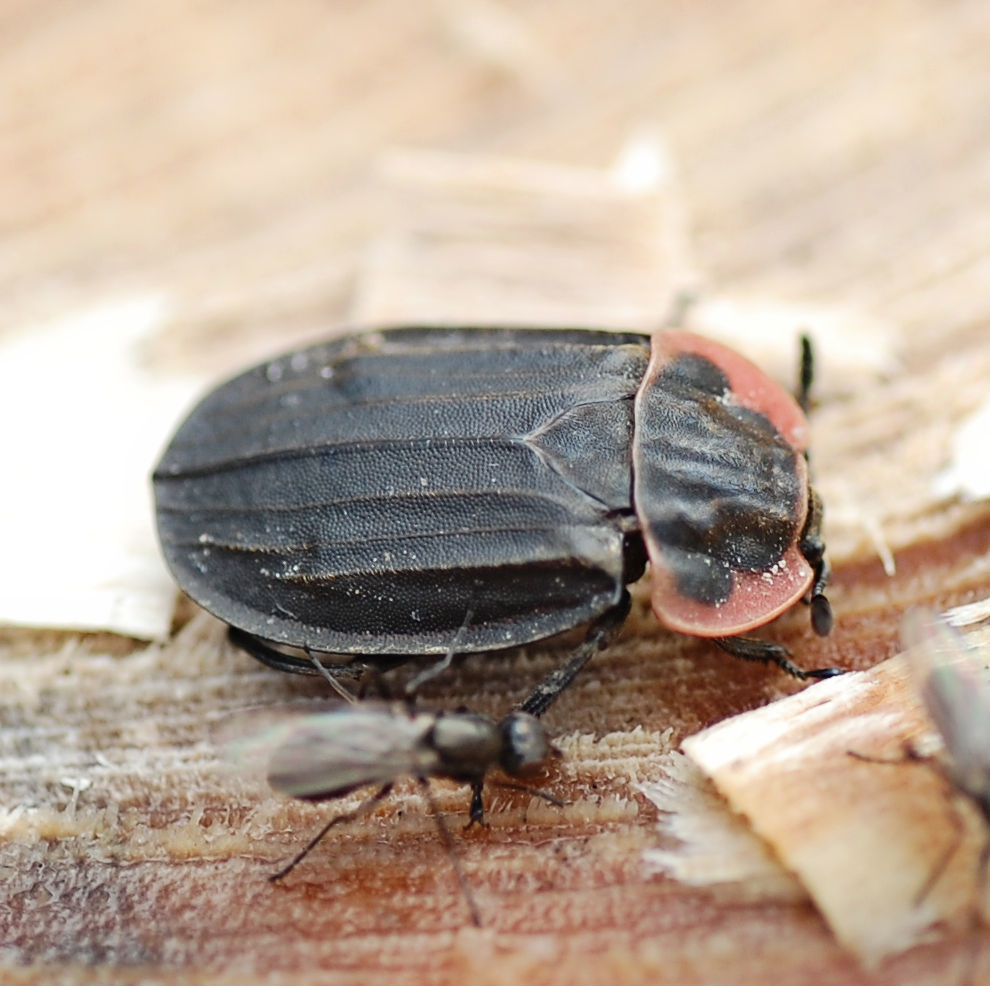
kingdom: Animalia
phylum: Arthropoda
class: Insecta
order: Coleoptera
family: Staphylinidae
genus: Oiceoptoma
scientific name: Oiceoptoma noveboracense
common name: Margined carrion beetle
